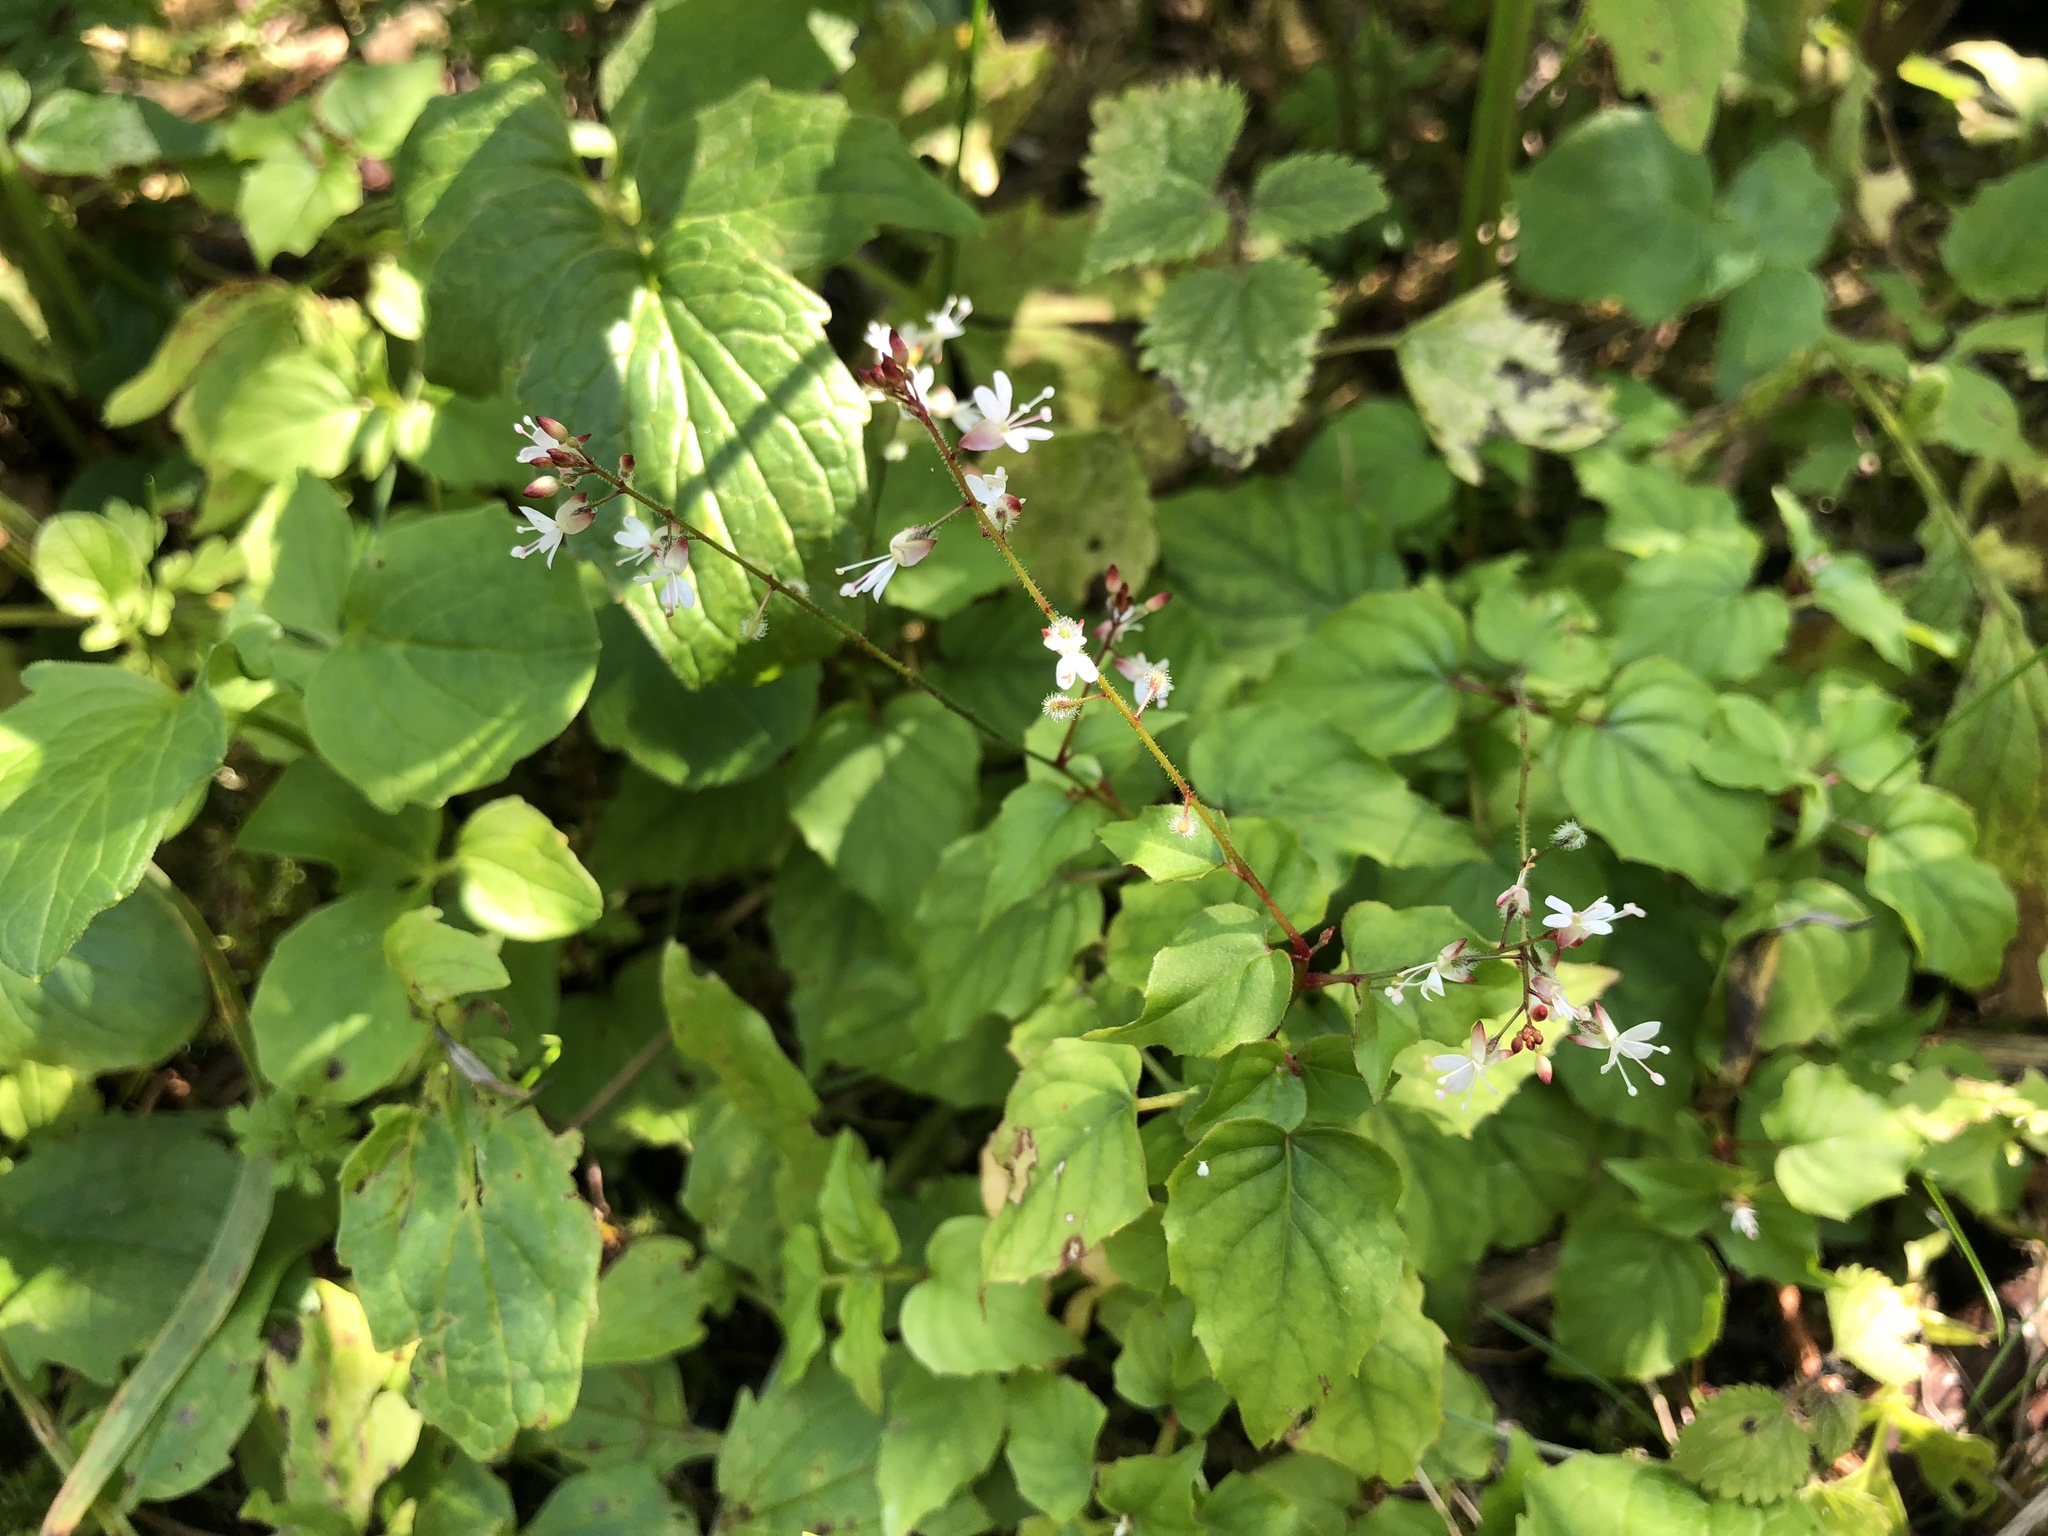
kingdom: Plantae
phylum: Tracheophyta
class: Magnoliopsida
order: Myrtales
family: Onagraceae
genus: Circaea
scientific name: Circaea lutetiana
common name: Enchanter's-nightshade
